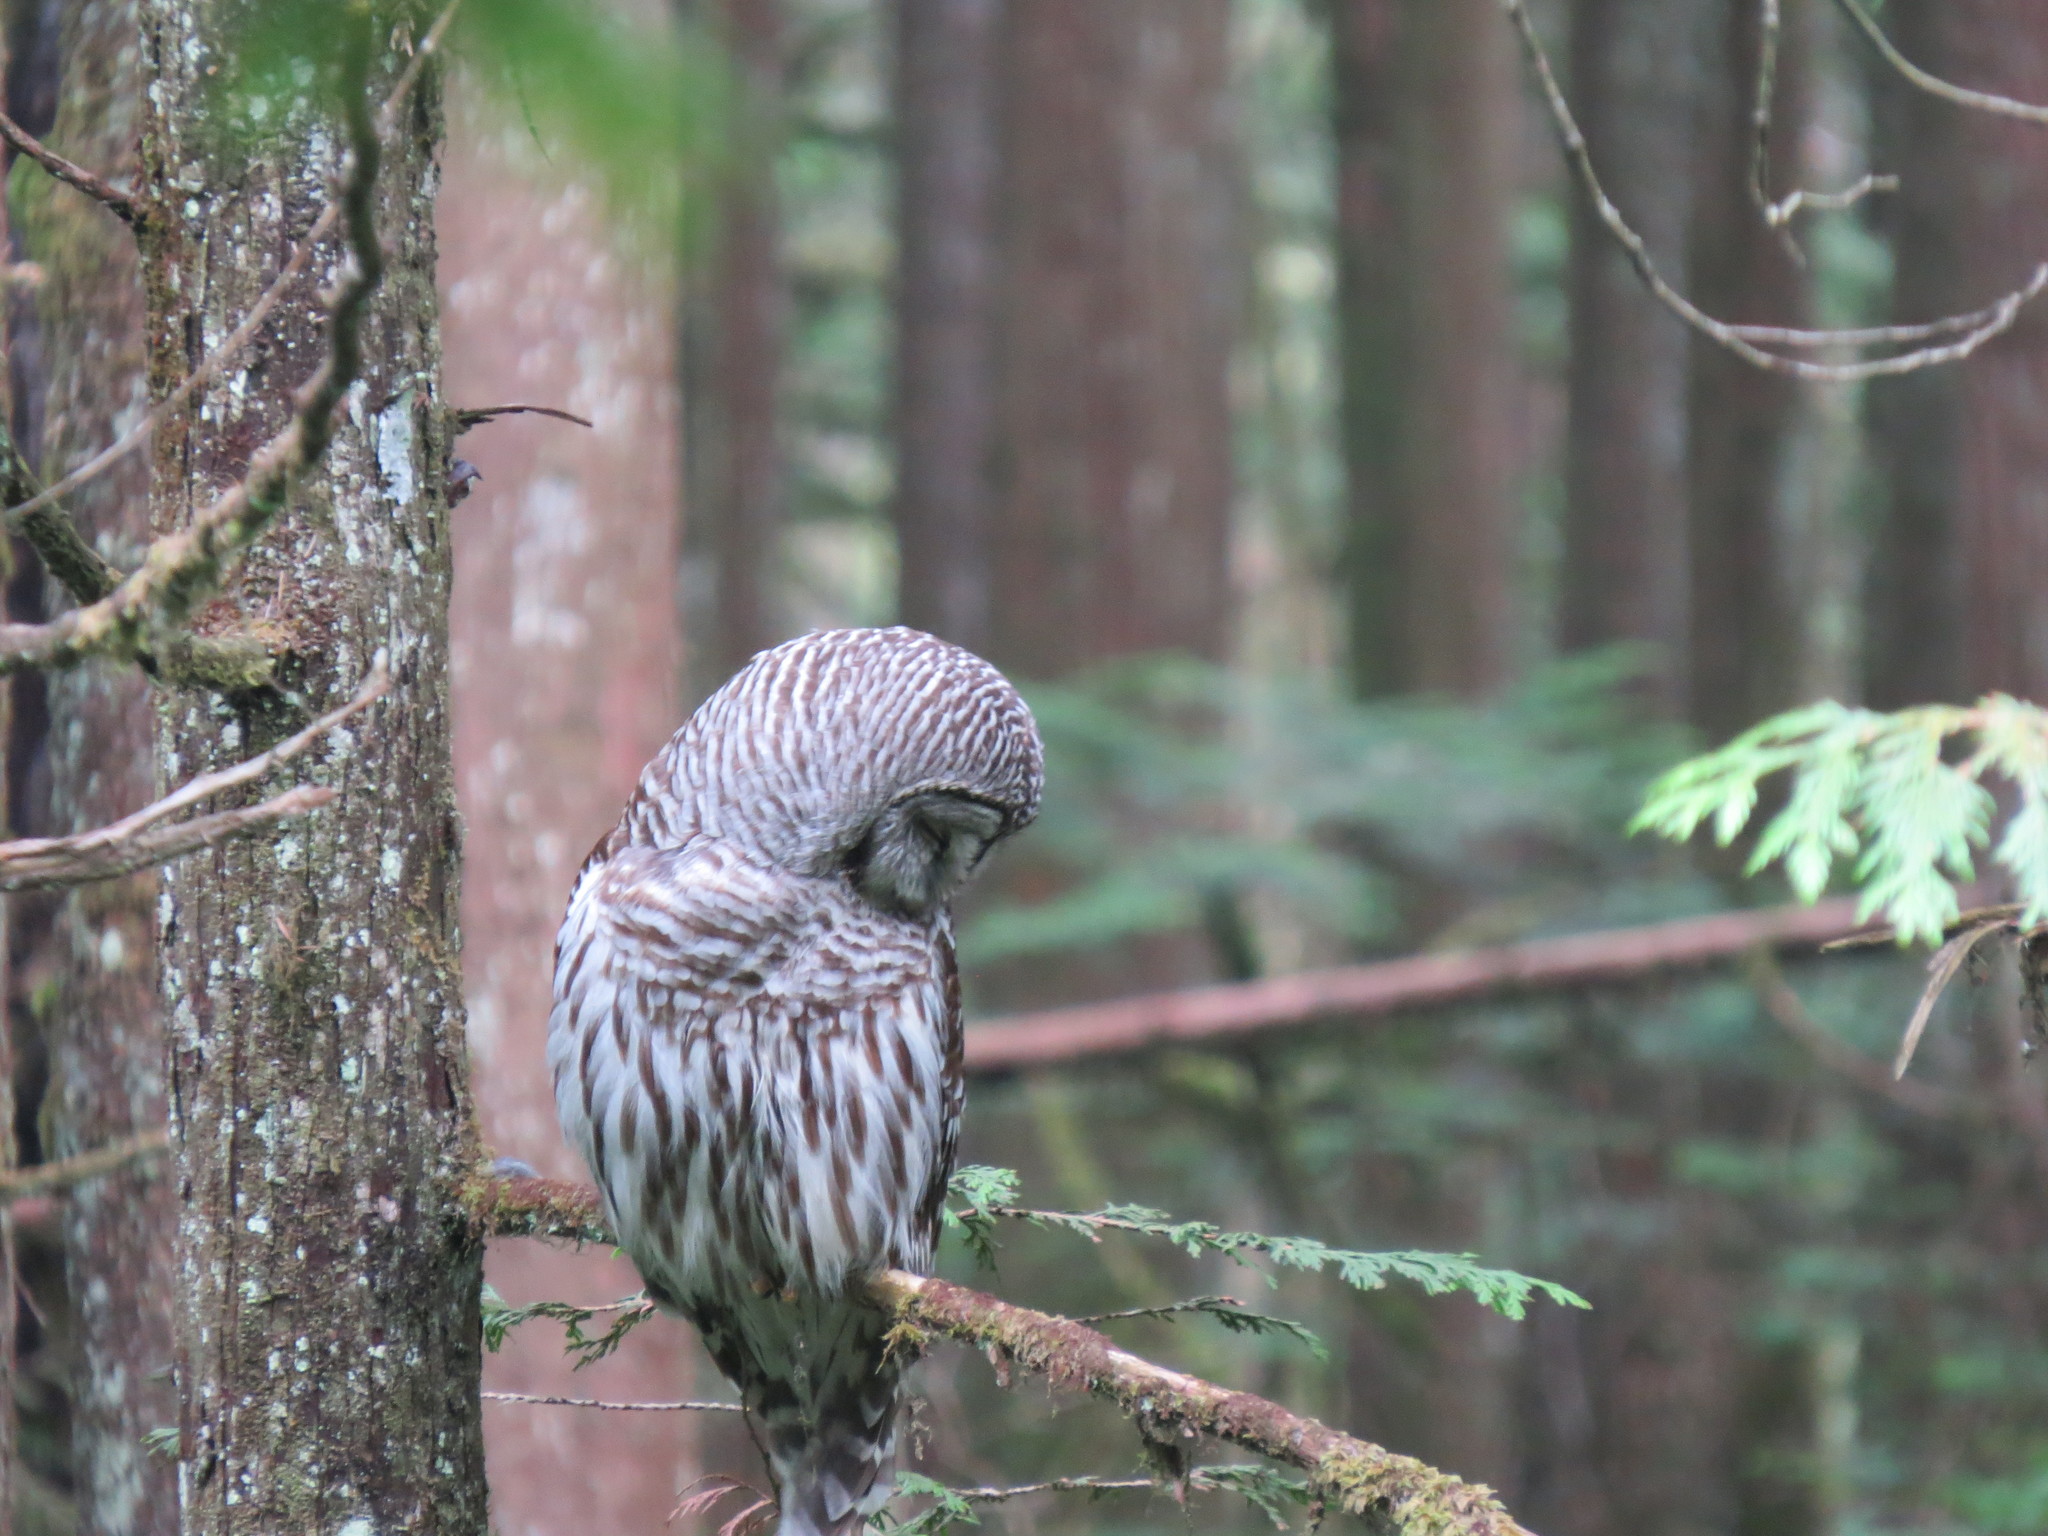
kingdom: Animalia
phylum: Chordata
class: Aves
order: Strigiformes
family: Strigidae
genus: Strix
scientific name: Strix varia
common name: Barred owl
